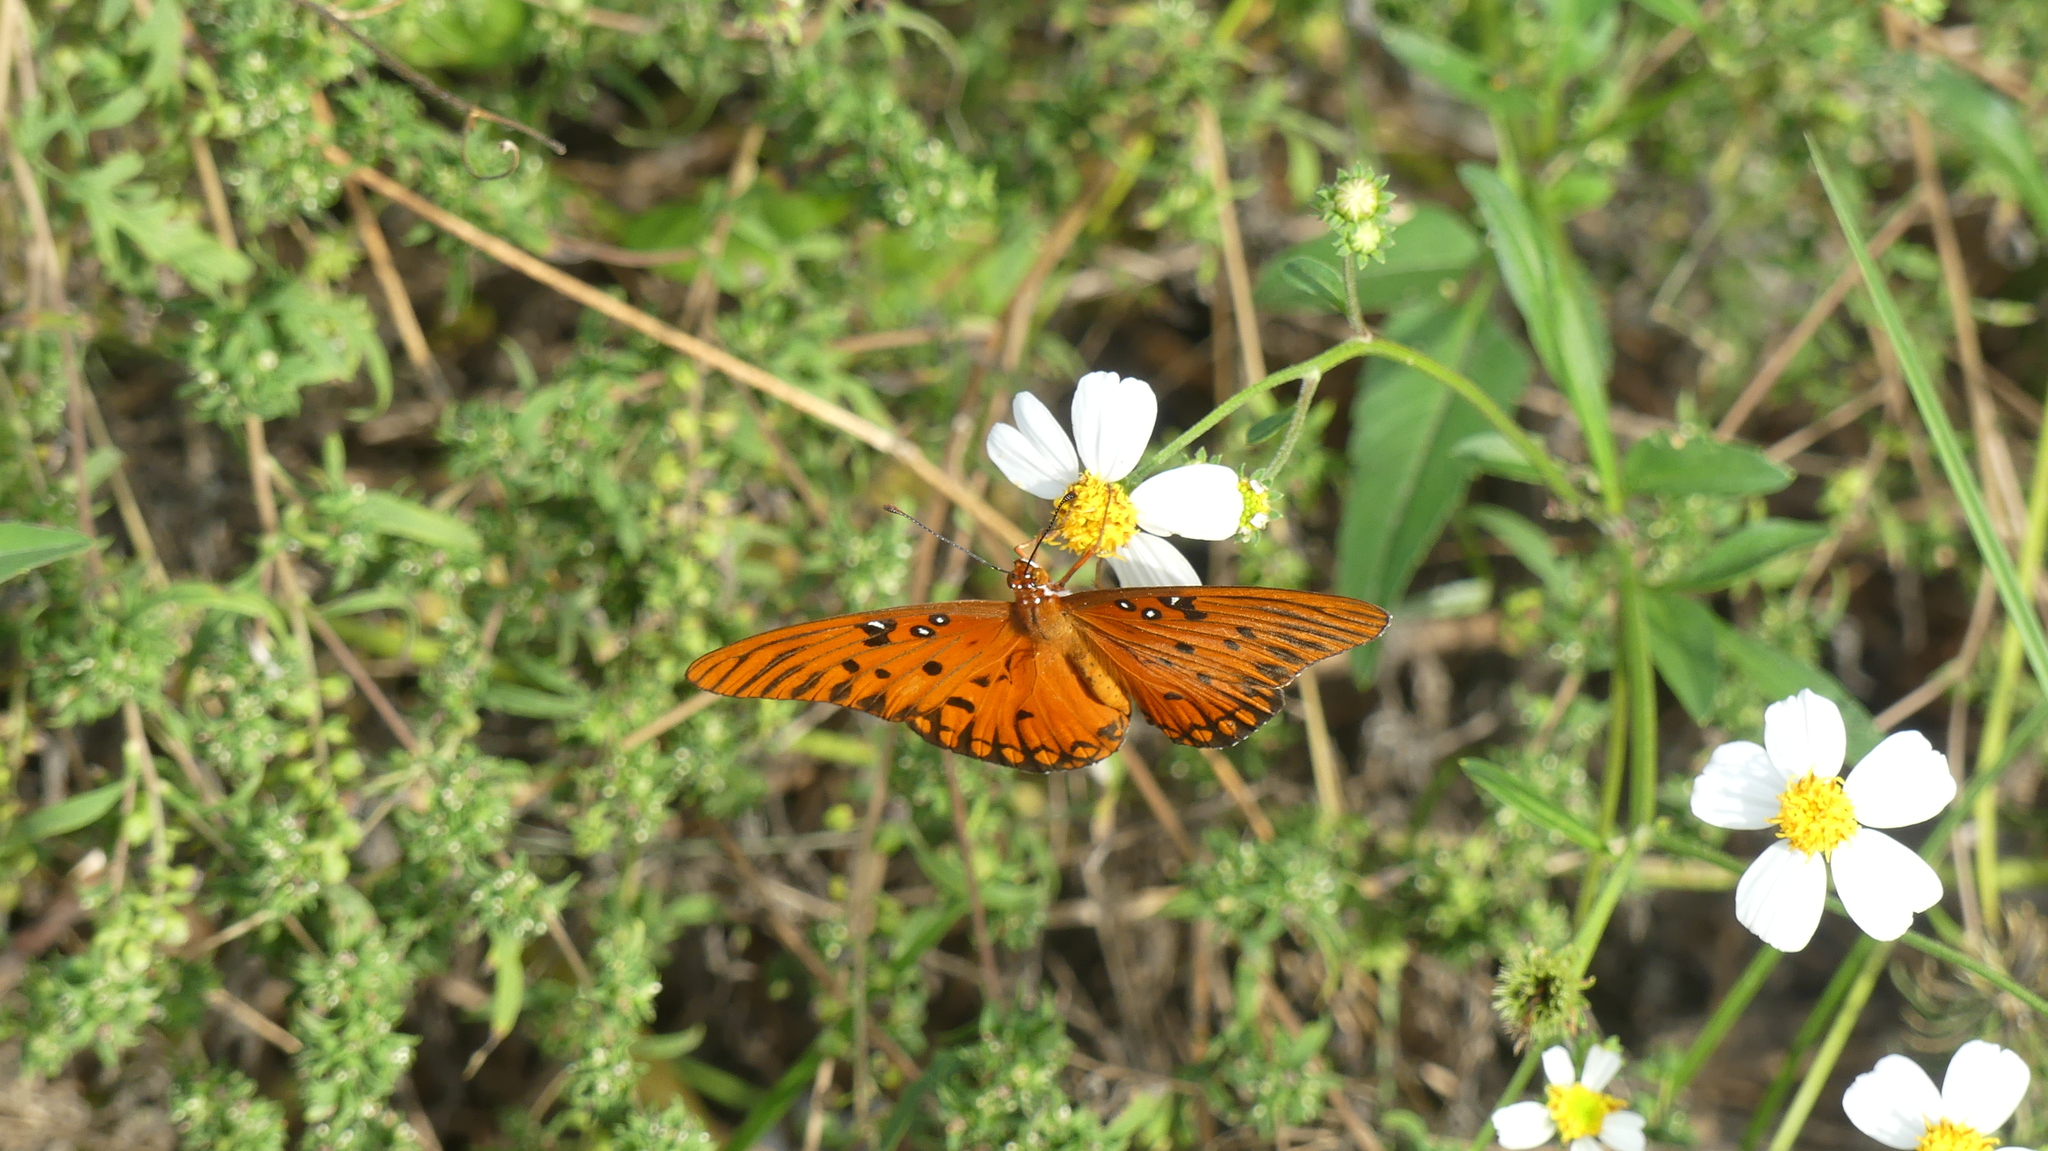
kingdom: Animalia
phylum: Arthropoda
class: Insecta
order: Lepidoptera
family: Nymphalidae
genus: Dione
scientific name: Dione vanillae
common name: Gulf fritillary
